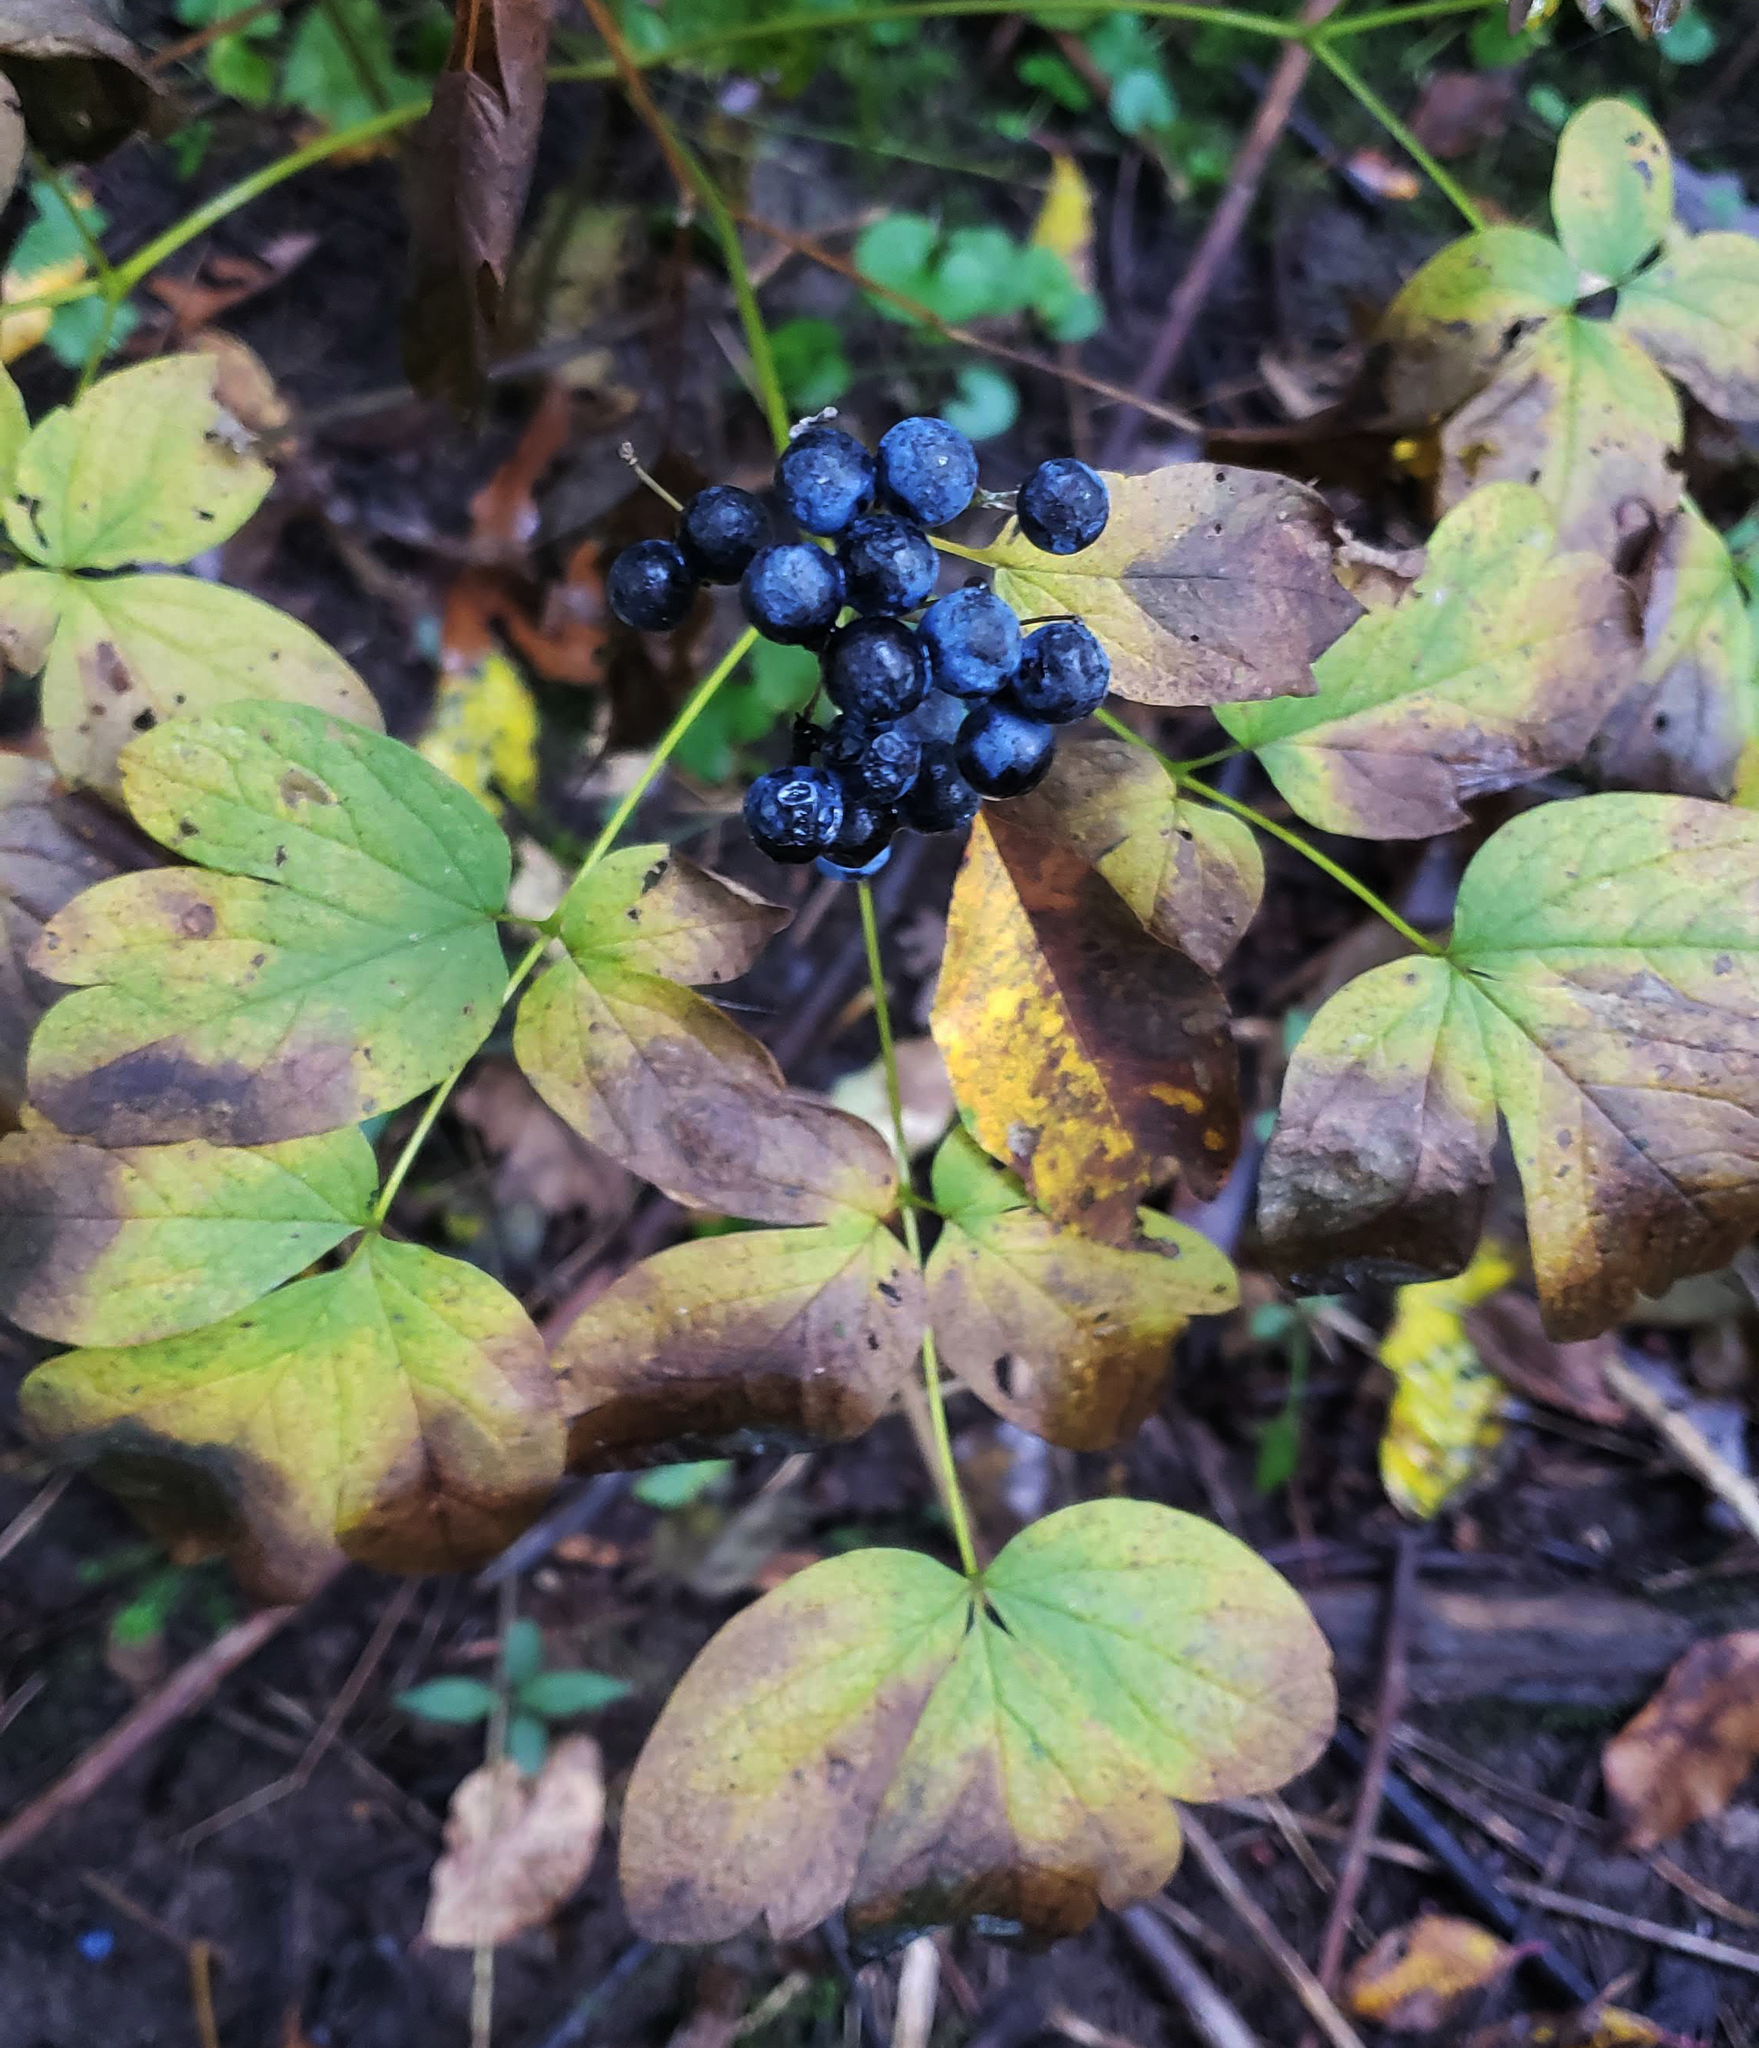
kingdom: Plantae
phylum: Tracheophyta
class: Magnoliopsida
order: Ranunculales
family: Berberidaceae
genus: Caulophyllum
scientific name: Caulophyllum thalictroides
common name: Blue cohosh
